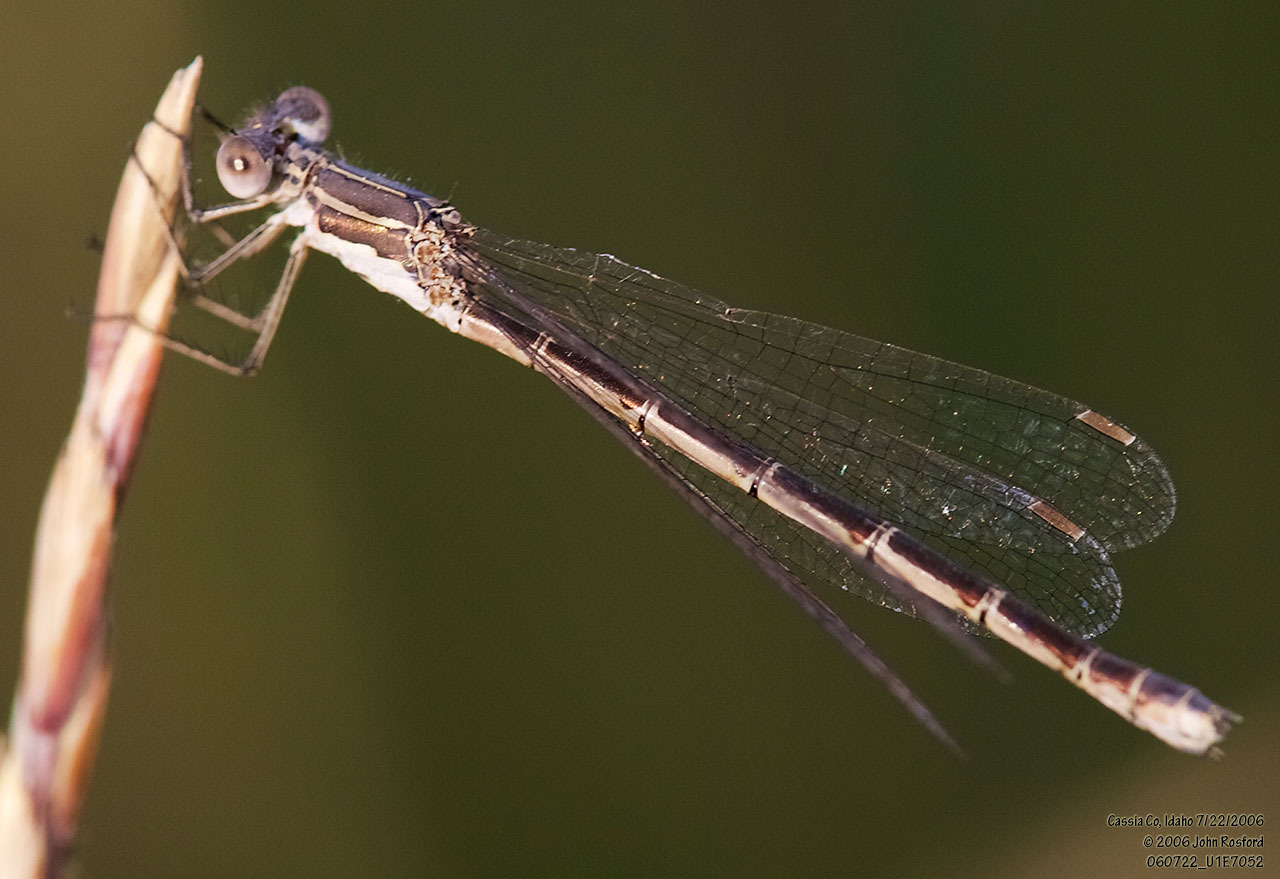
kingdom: Animalia
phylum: Arthropoda
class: Insecta
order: Odonata
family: Lestidae
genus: Lestes
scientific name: Lestes congener
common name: Spotted spreadwing
